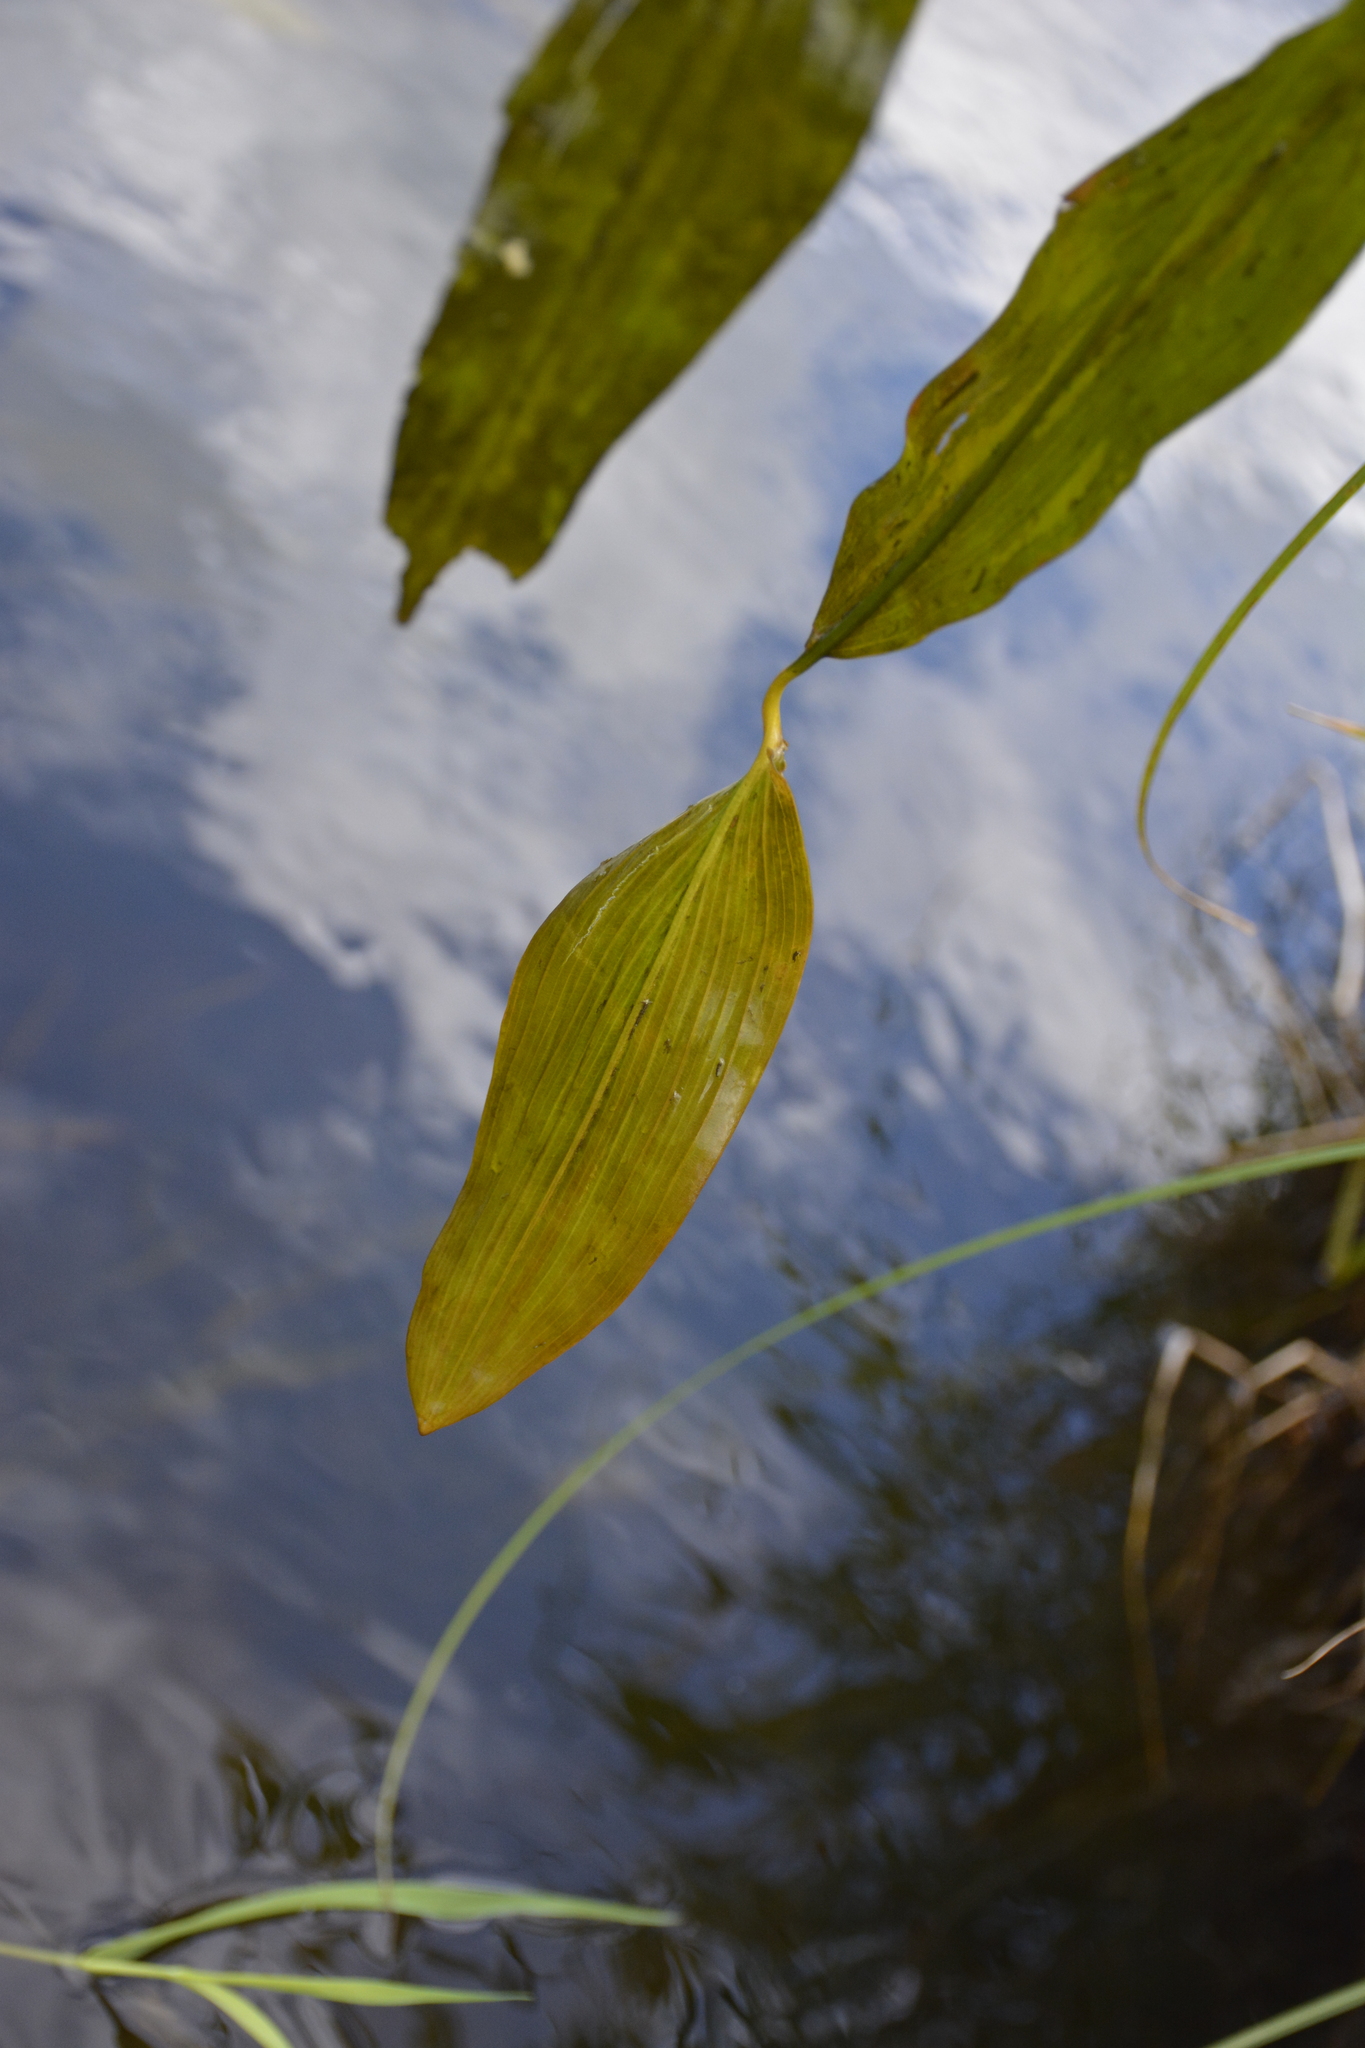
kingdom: Plantae
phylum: Tracheophyta
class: Liliopsida
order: Alismatales
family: Potamogetonaceae
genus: Potamogeton
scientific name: Potamogeton natans
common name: Broad-leaved pondweed
